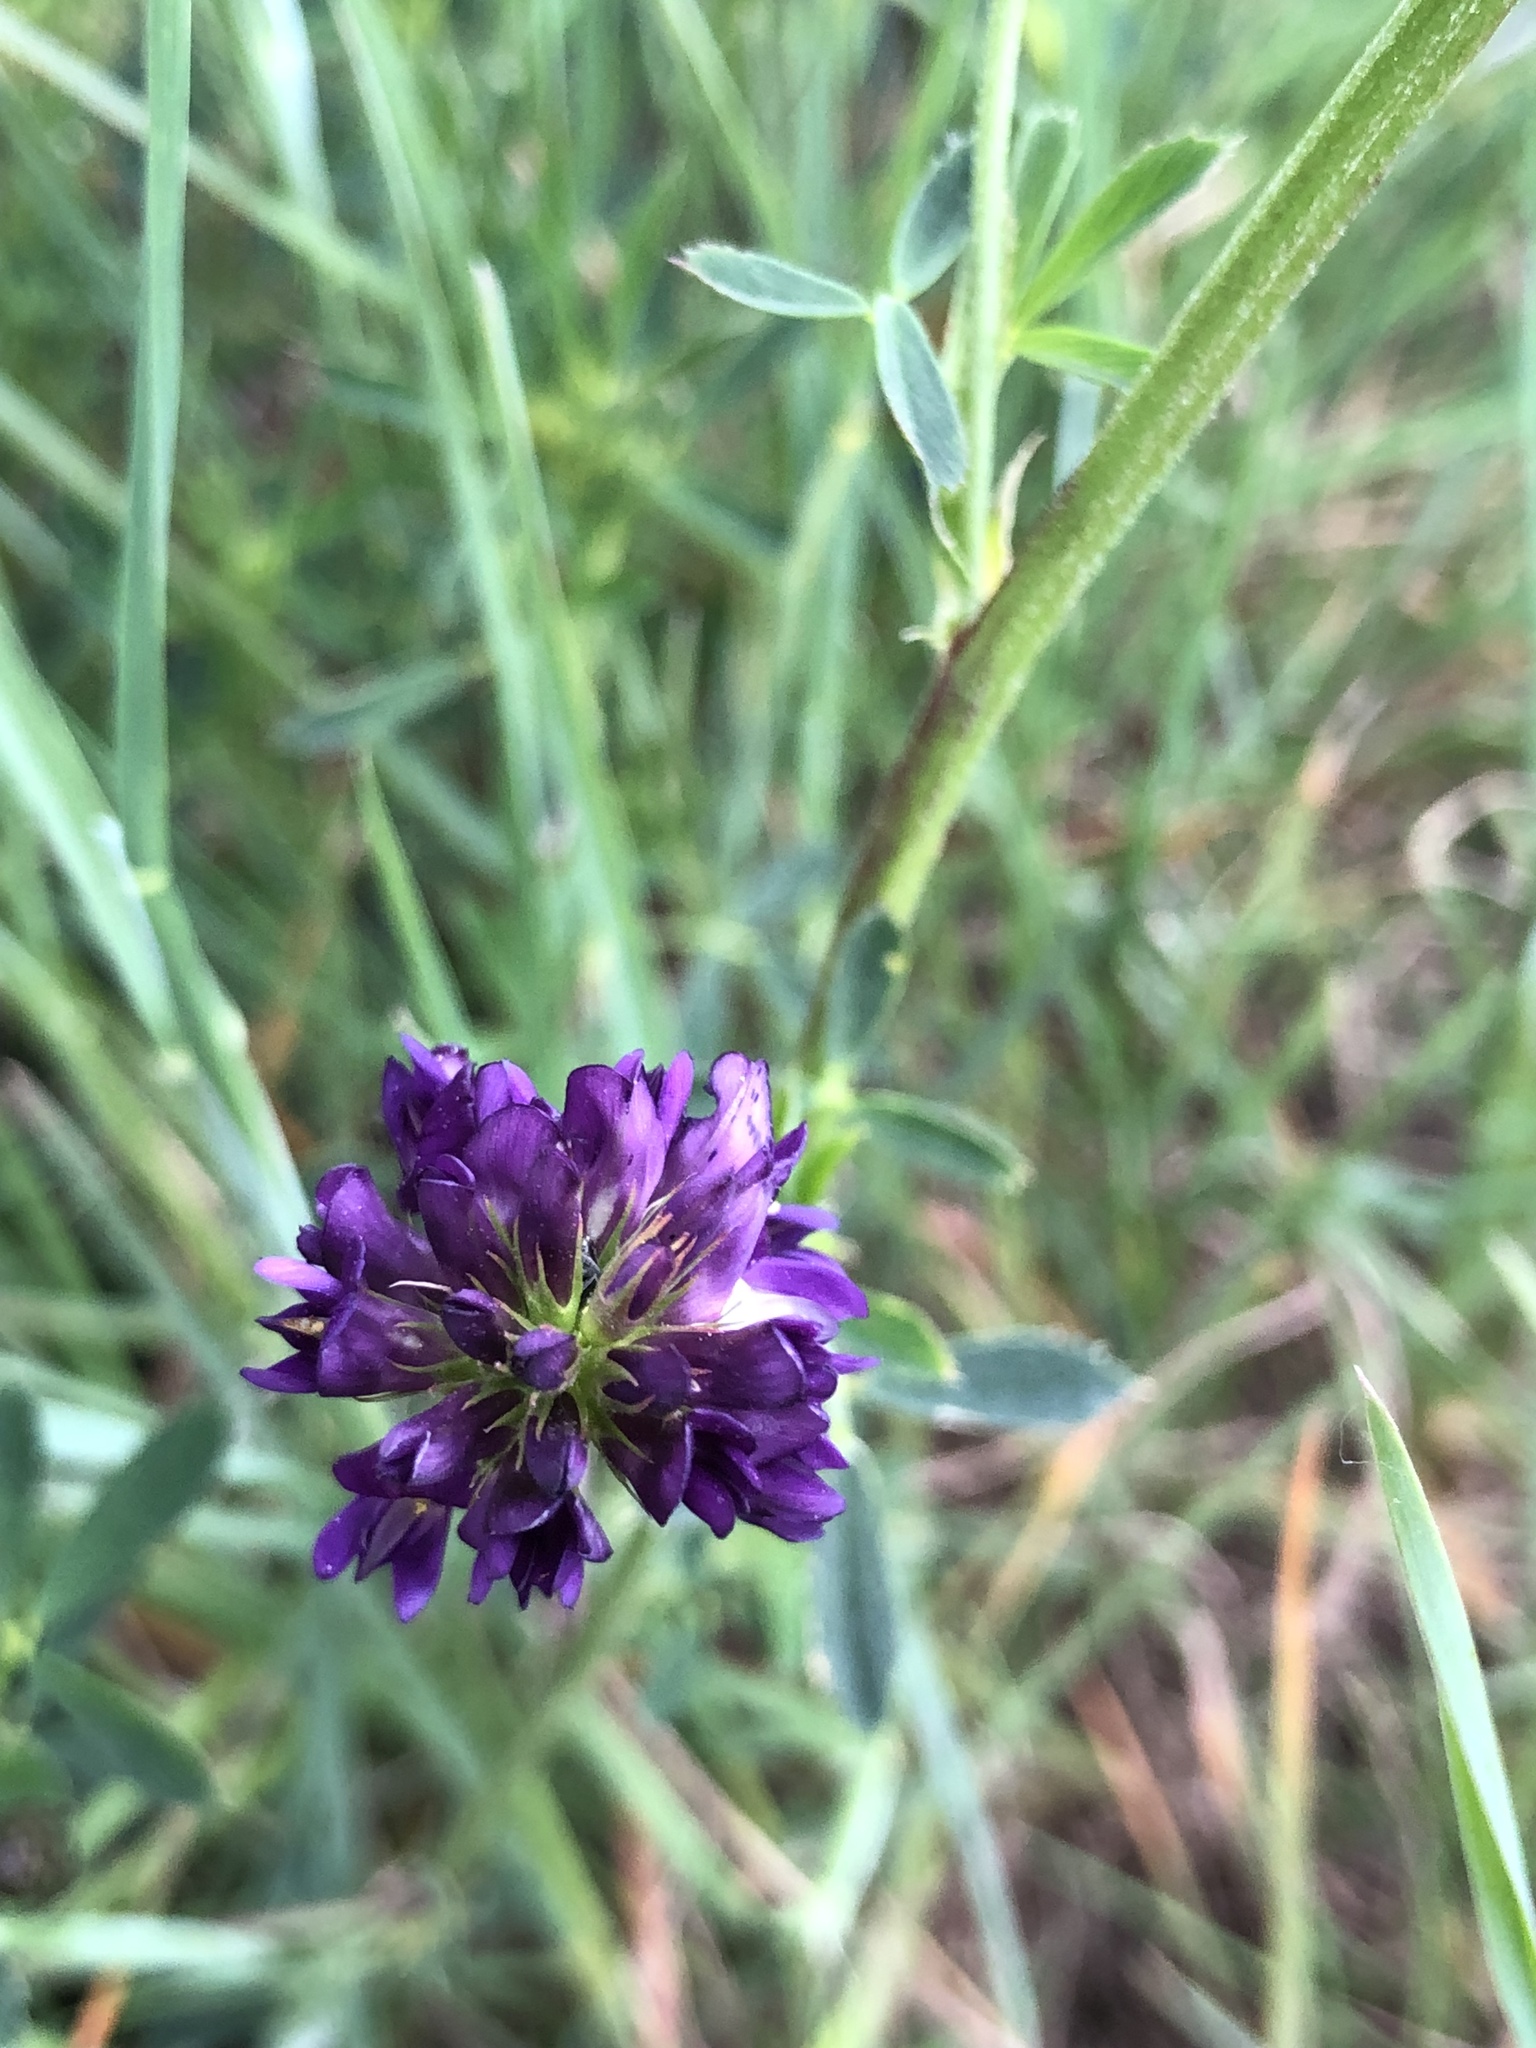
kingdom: Plantae
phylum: Tracheophyta
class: Magnoliopsida
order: Fabales
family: Fabaceae
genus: Medicago
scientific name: Medicago sativa
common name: Alfalfa
